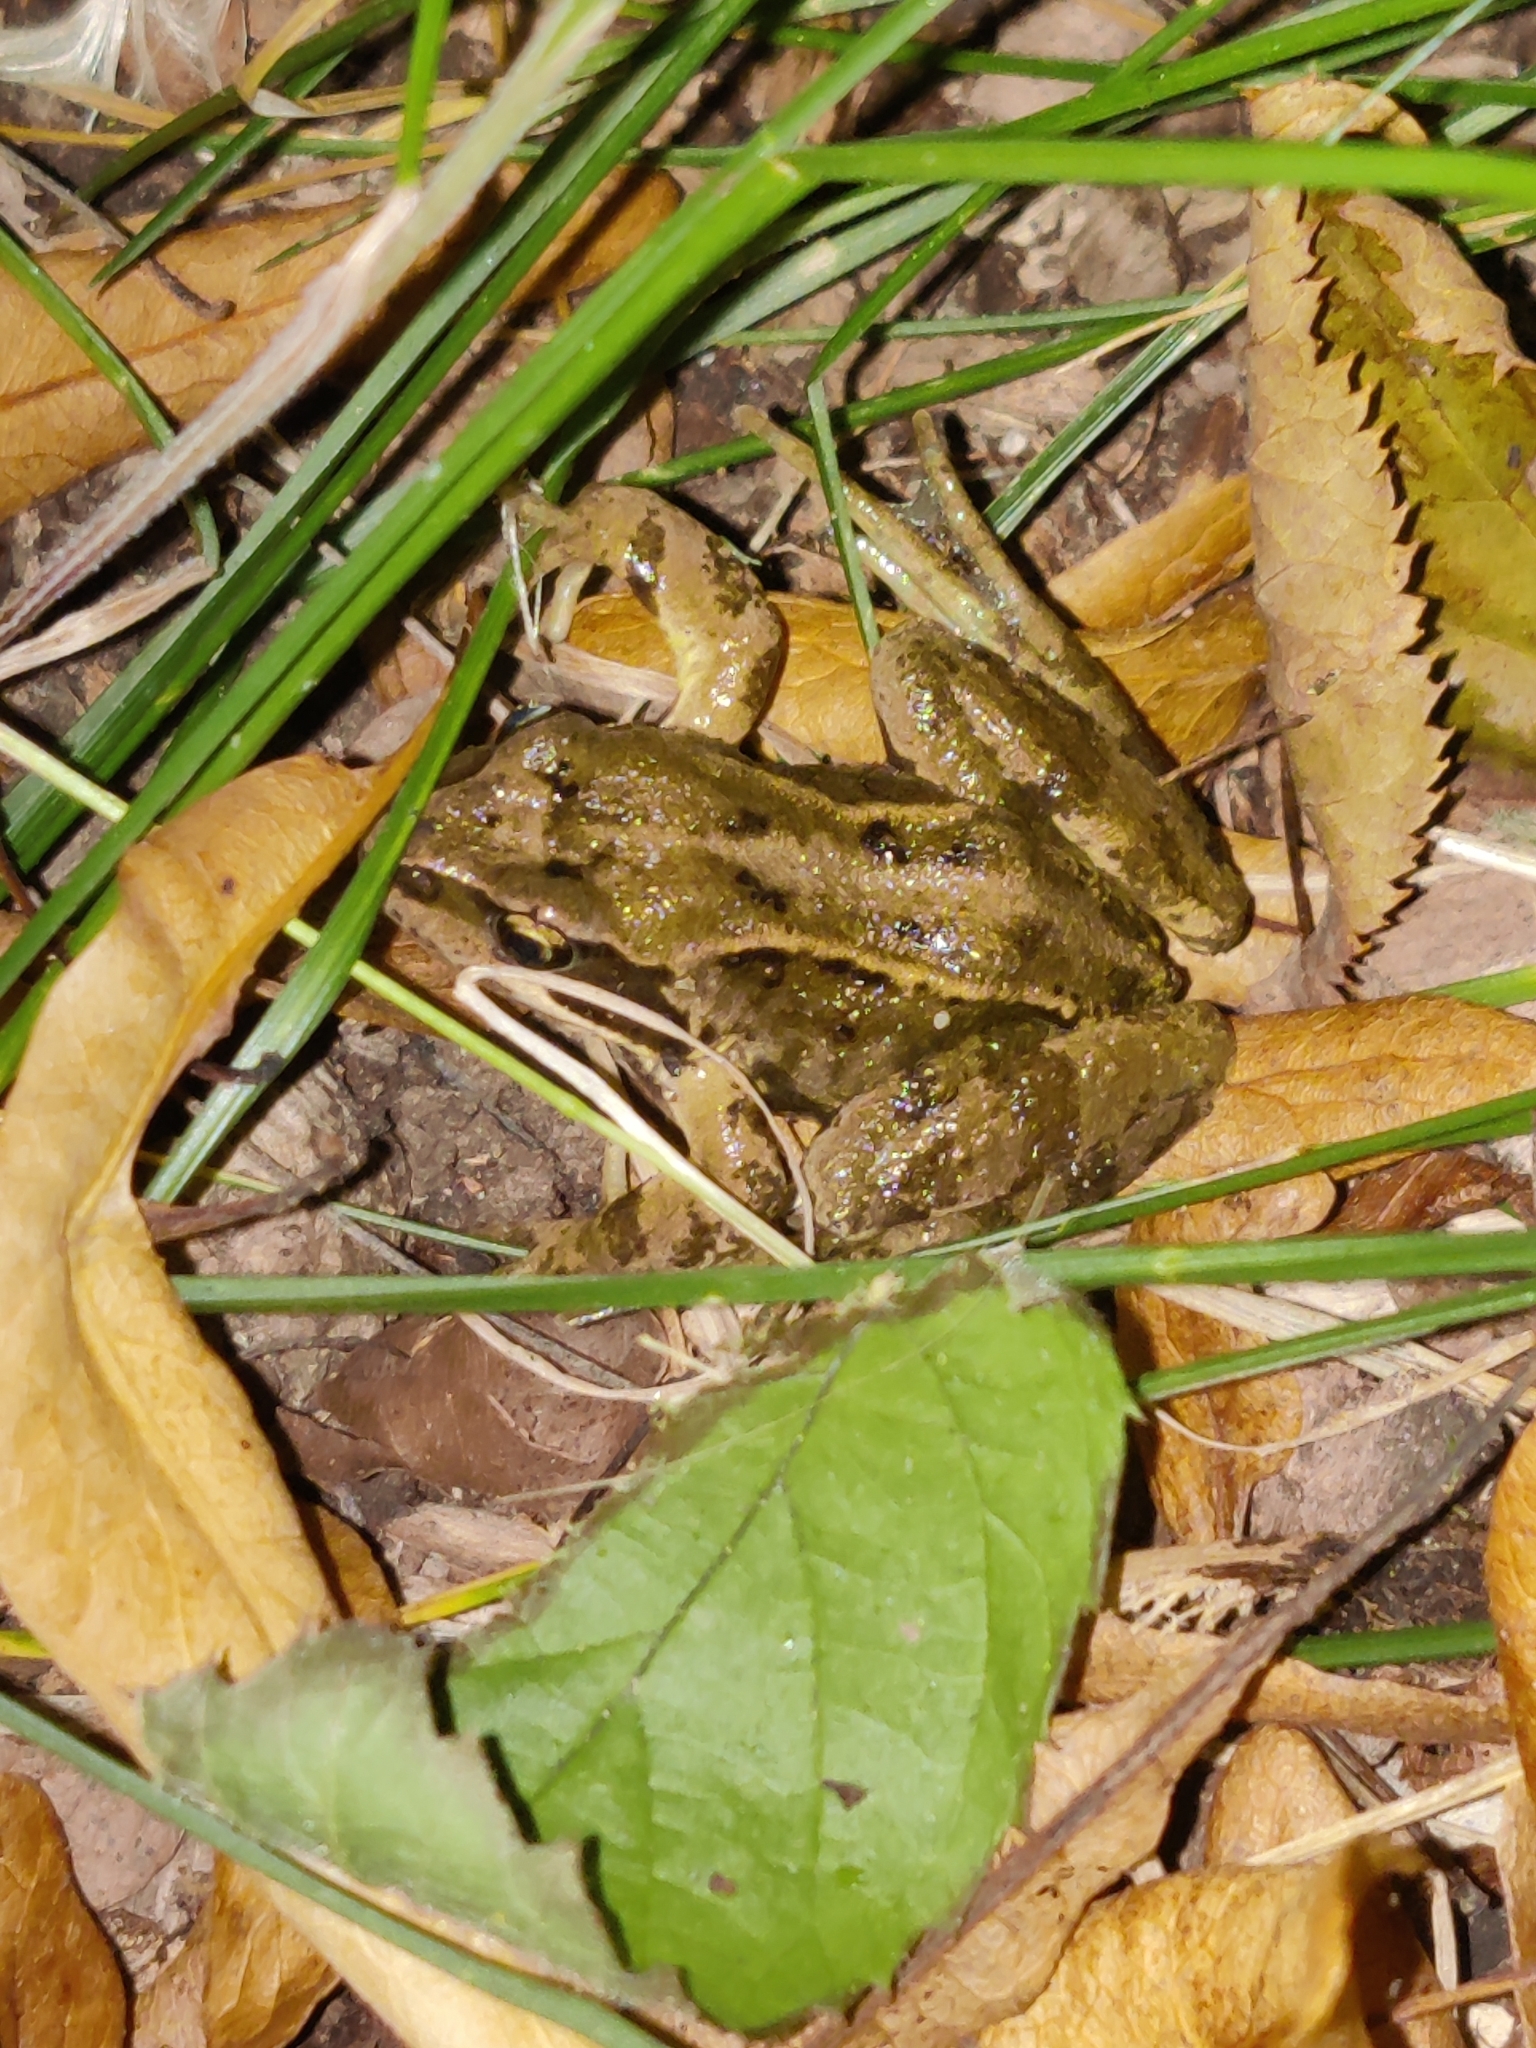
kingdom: Animalia
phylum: Chordata
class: Amphibia
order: Anura
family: Ranidae
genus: Rana
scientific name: Rana temporaria
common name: Common frog
